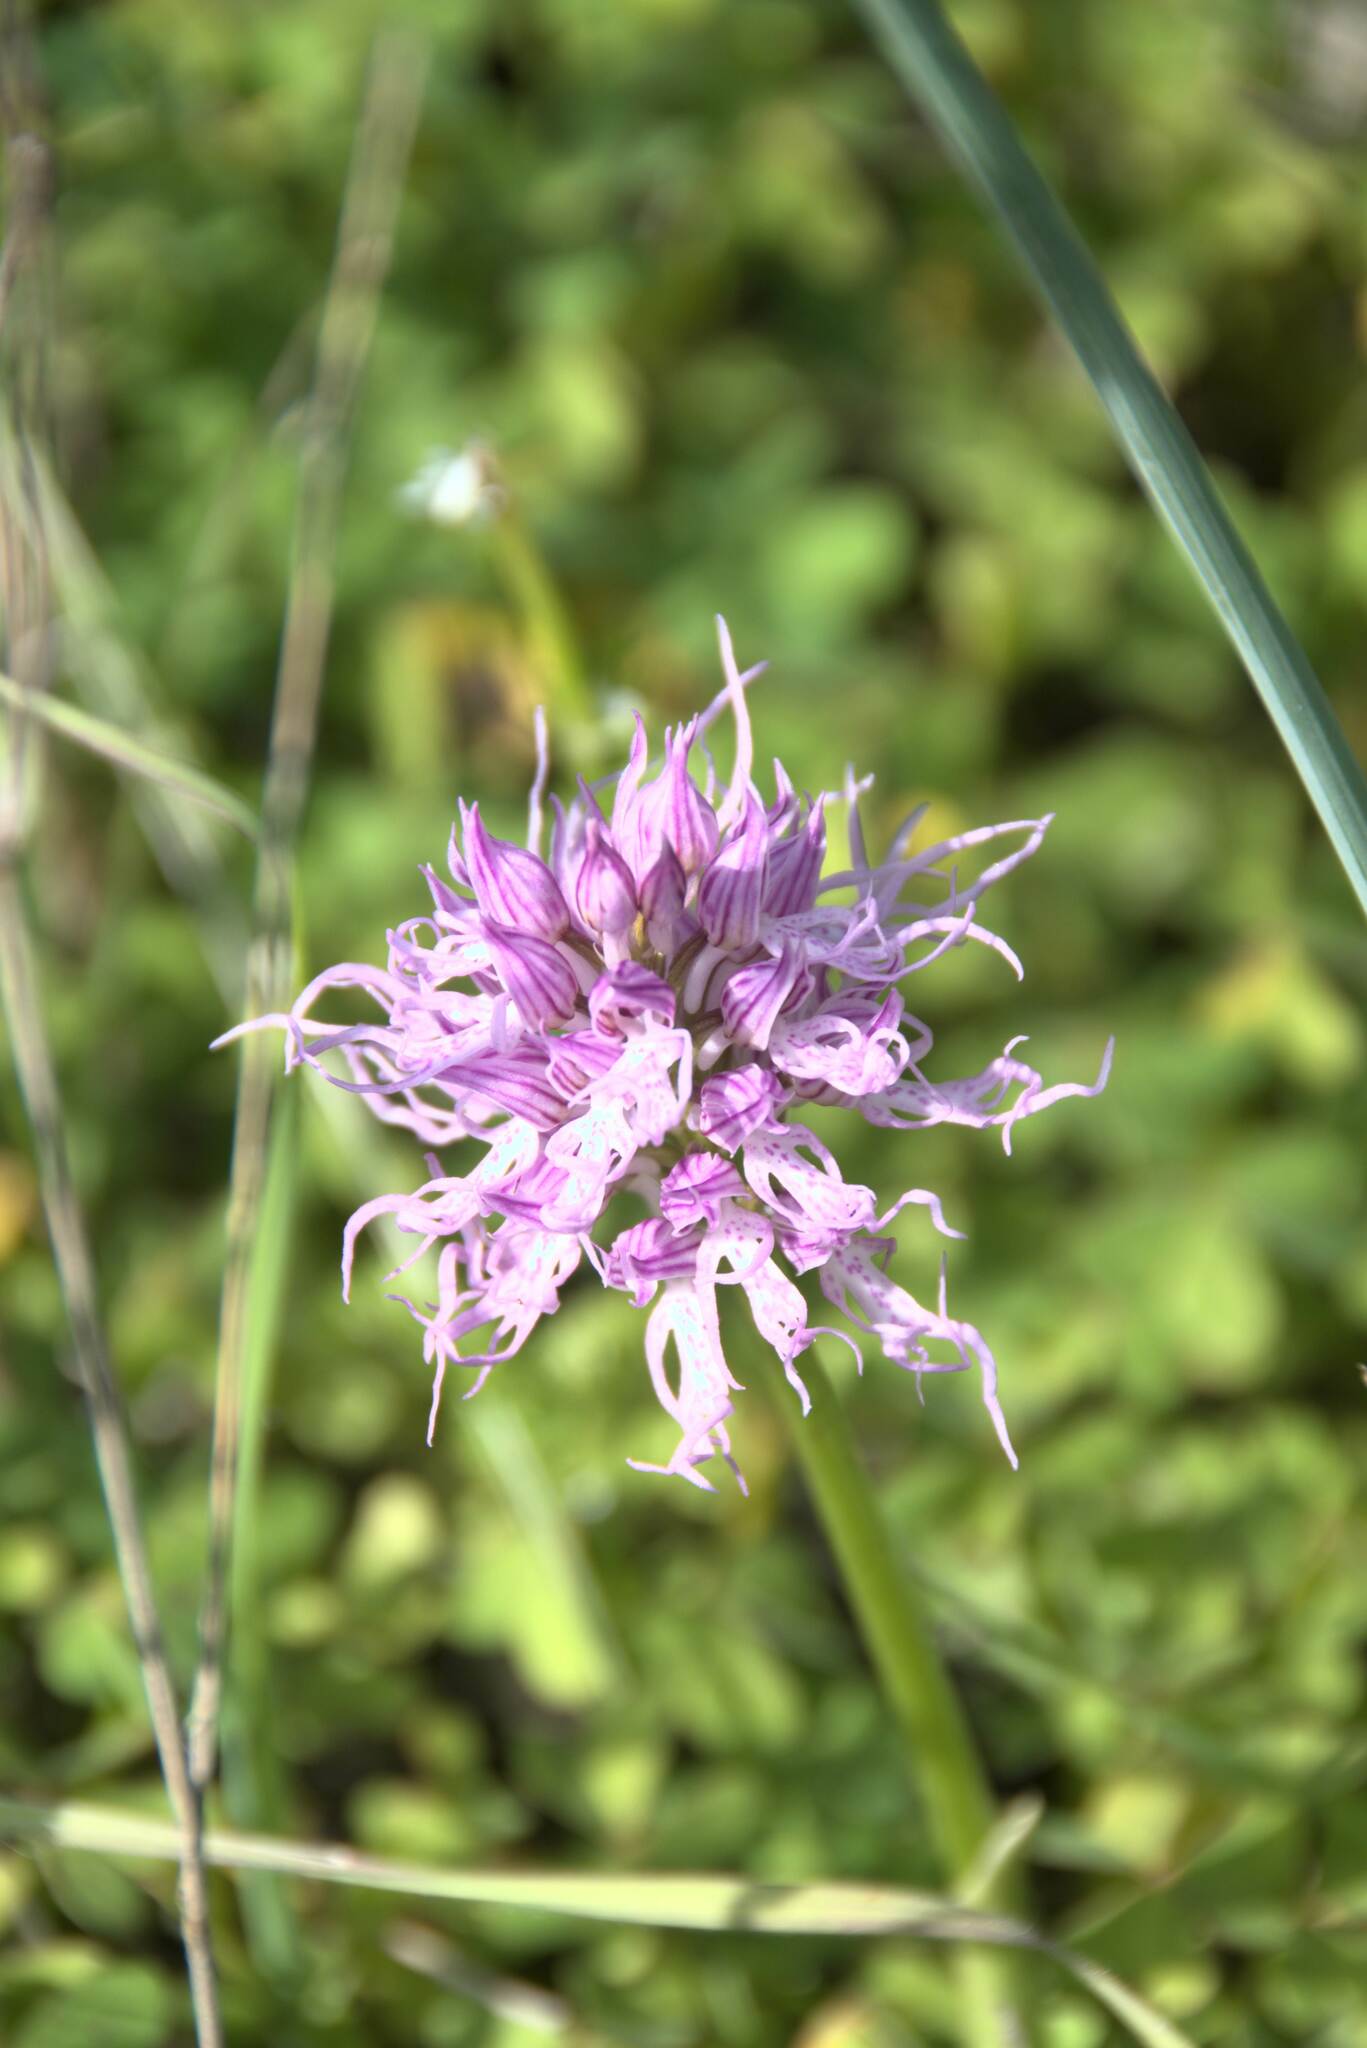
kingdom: Plantae
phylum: Tracheophyta
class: Liliopsida
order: Asparagales
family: Orchidaceae
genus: Orchis
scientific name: Orchis italica
